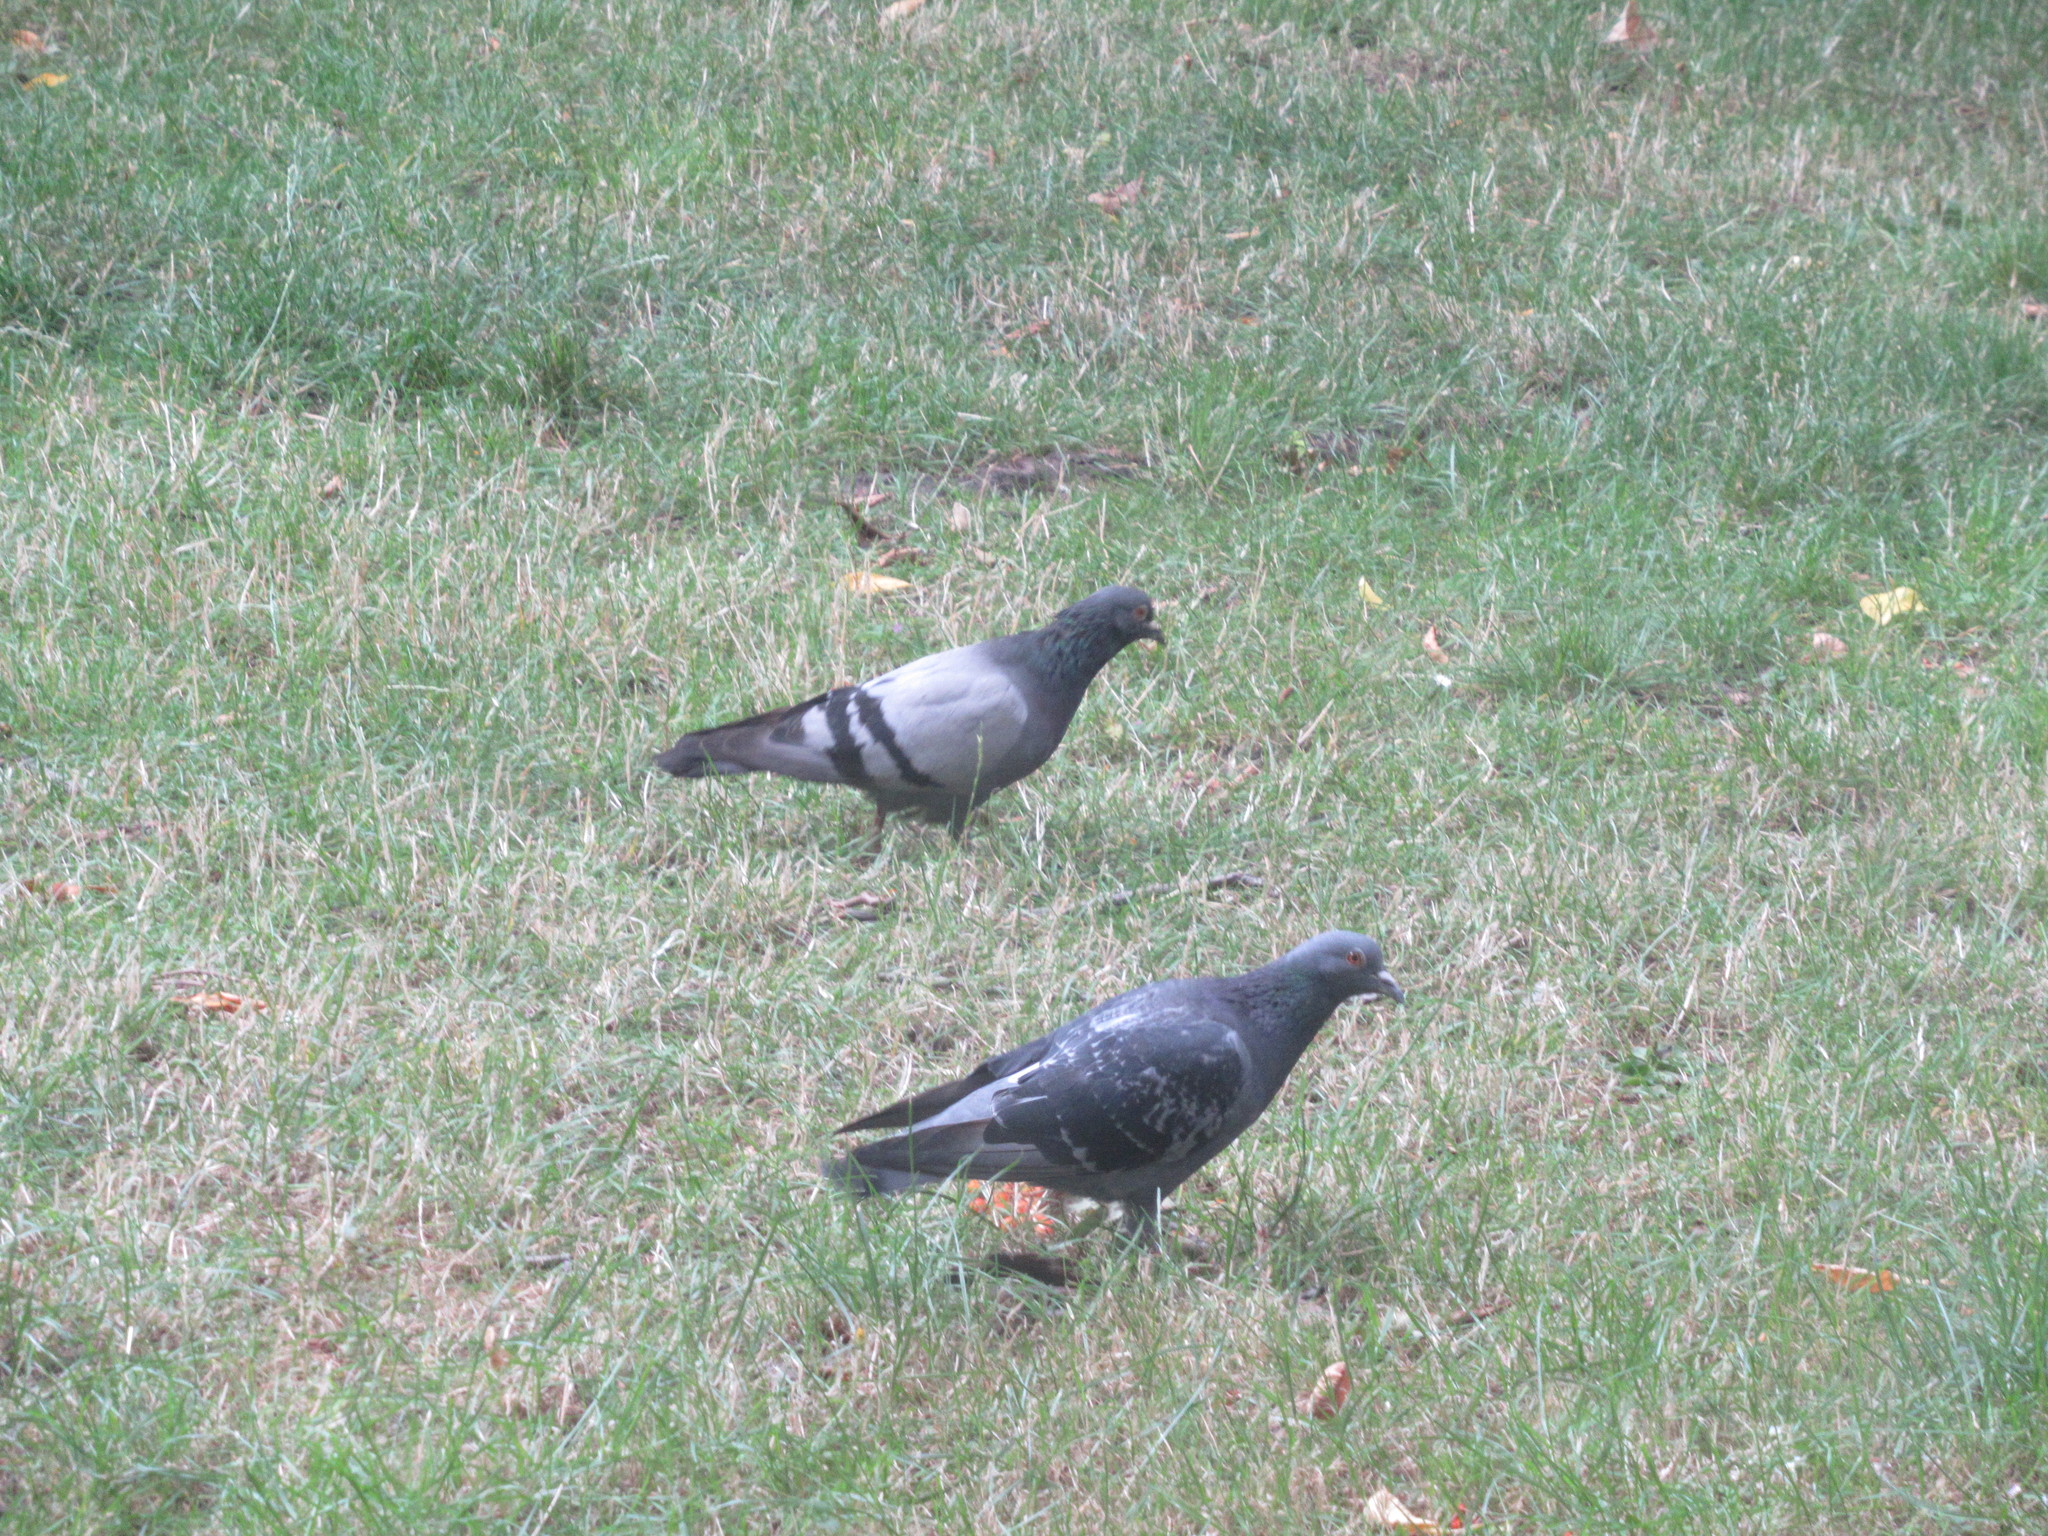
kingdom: Animalia
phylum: Chordata
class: Aves
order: Columbiformes
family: Columbidae
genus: Columba
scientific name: Columba livia
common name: Rock pigeon
